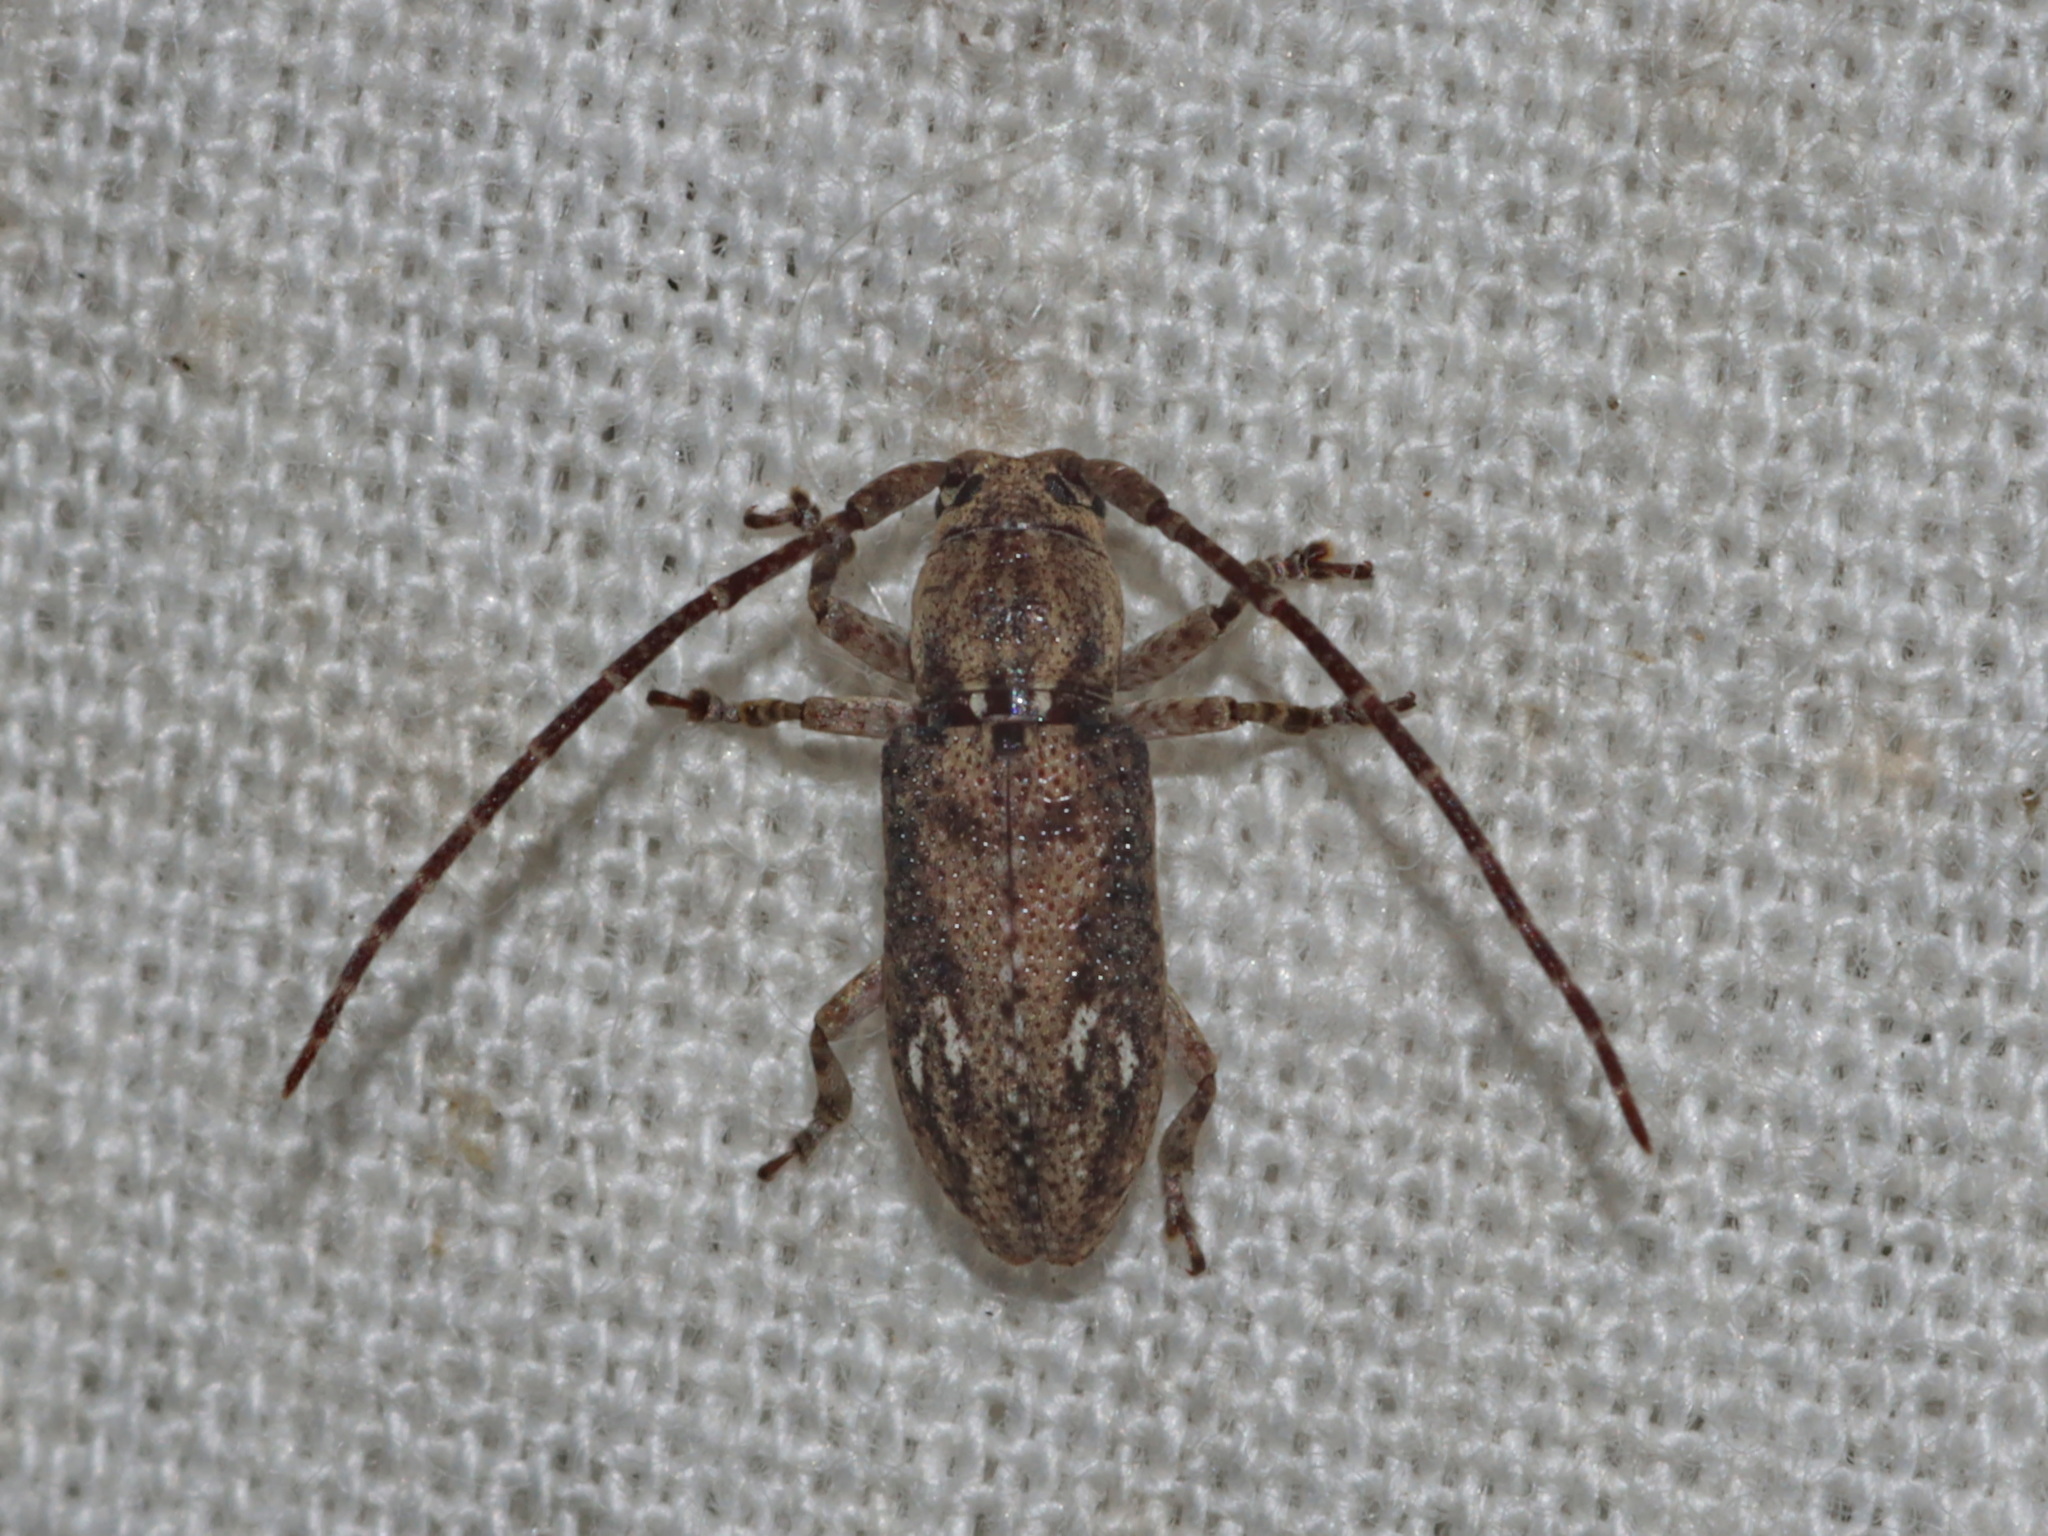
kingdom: Animalia
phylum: Arthropoda
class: Insecta
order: Coleoptera
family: Cerambycidae
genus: Ropica
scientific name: Ropica rufonotata
